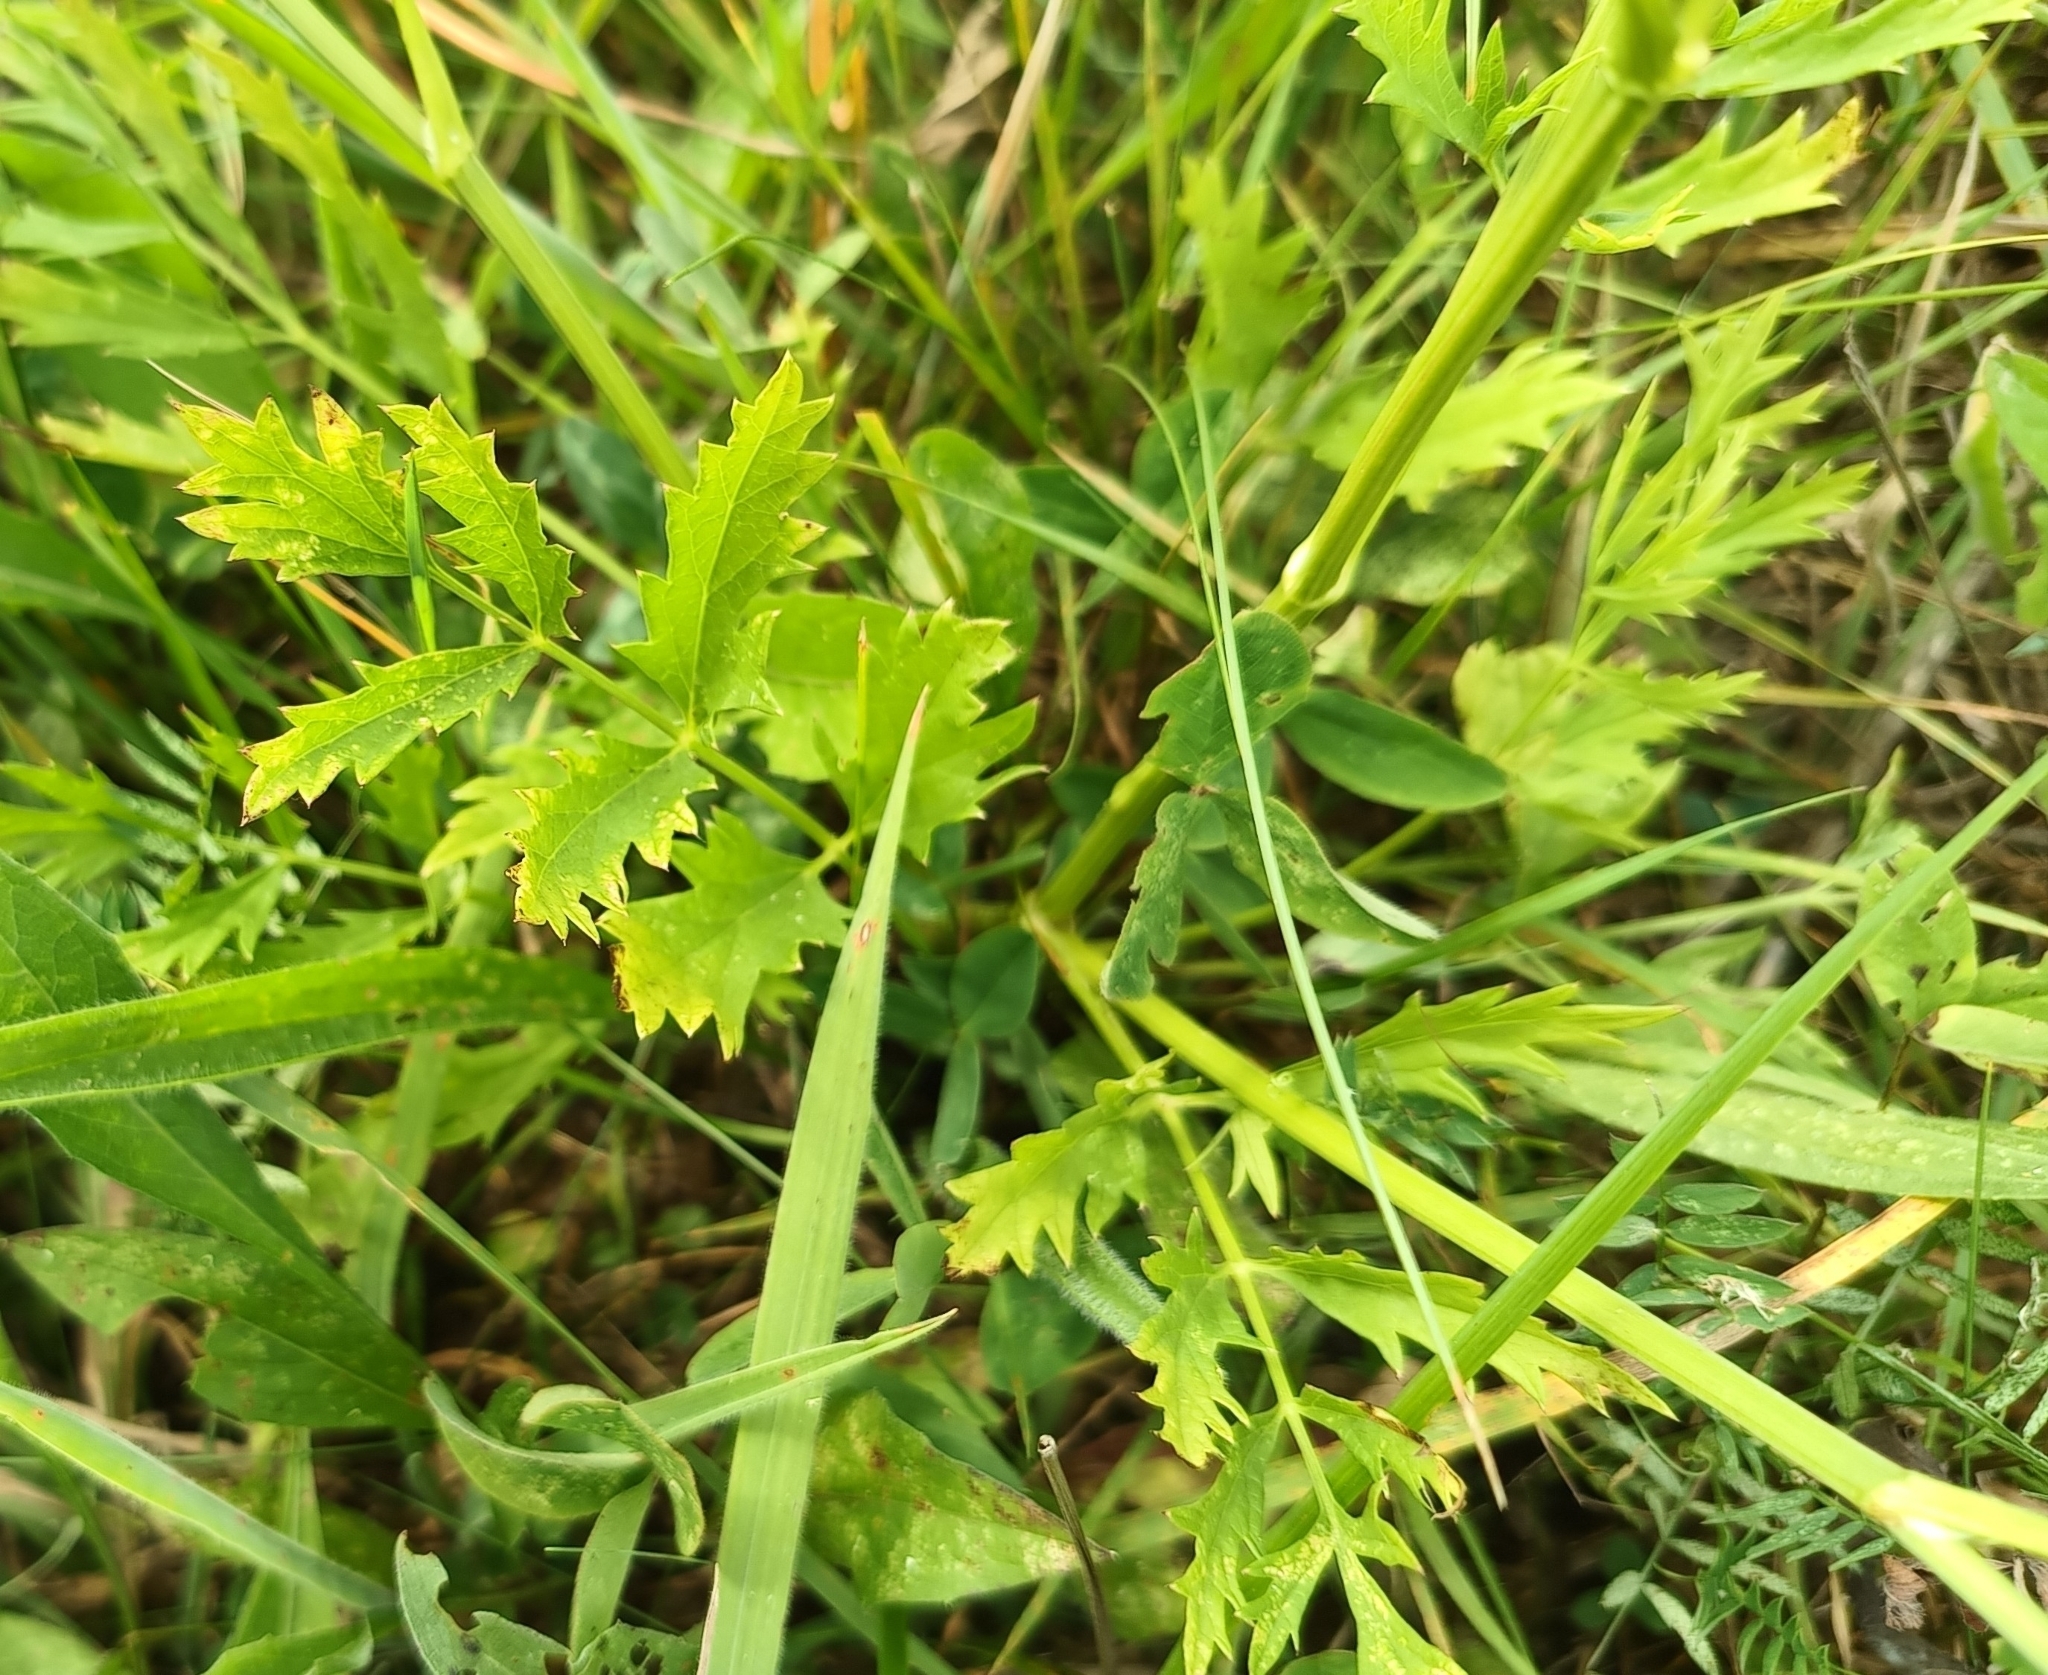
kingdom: Plantae
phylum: Tracheophyta
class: Magnoliopsida
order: Apiales
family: Apiaceae
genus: Pimpinella
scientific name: Pimpinella major
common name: Greater burnet-saxifrage
